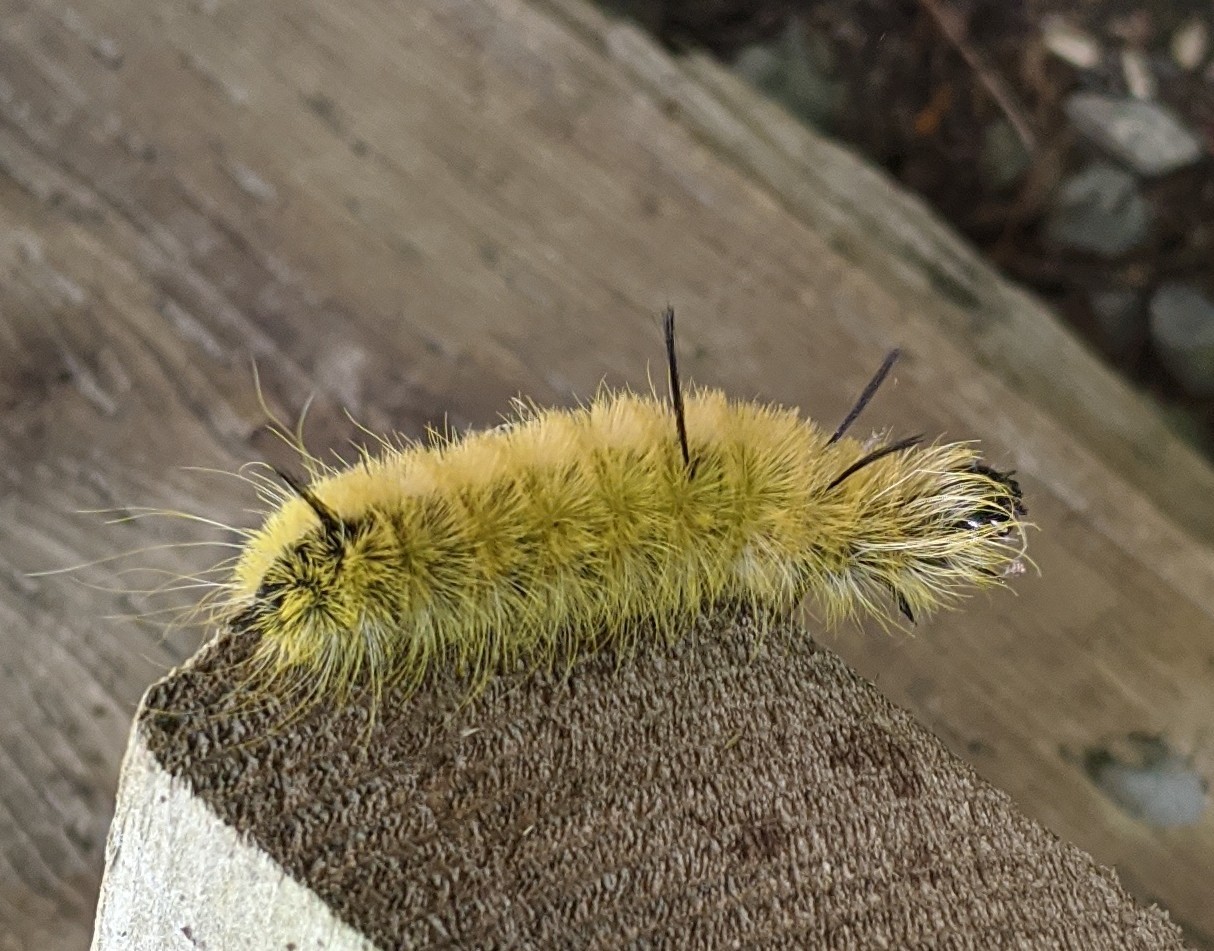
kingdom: Animalia
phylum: Arthropoda
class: Insecta
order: Lepidoptera
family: Noctuidae
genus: Acronicta
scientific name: Acronicta americana
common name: American dagger
